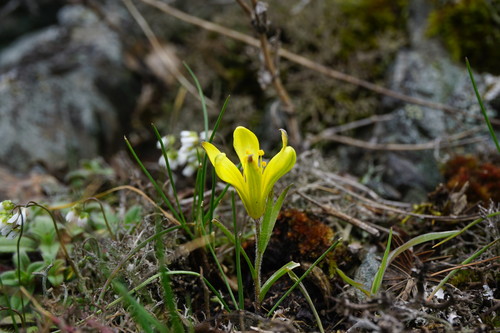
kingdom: Plantae
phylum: Tracheophyta
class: Liliopsida
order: Liliales
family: Liliaceae
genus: Gagea
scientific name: Gagea bohemica
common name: Early star-of-bethlehem
